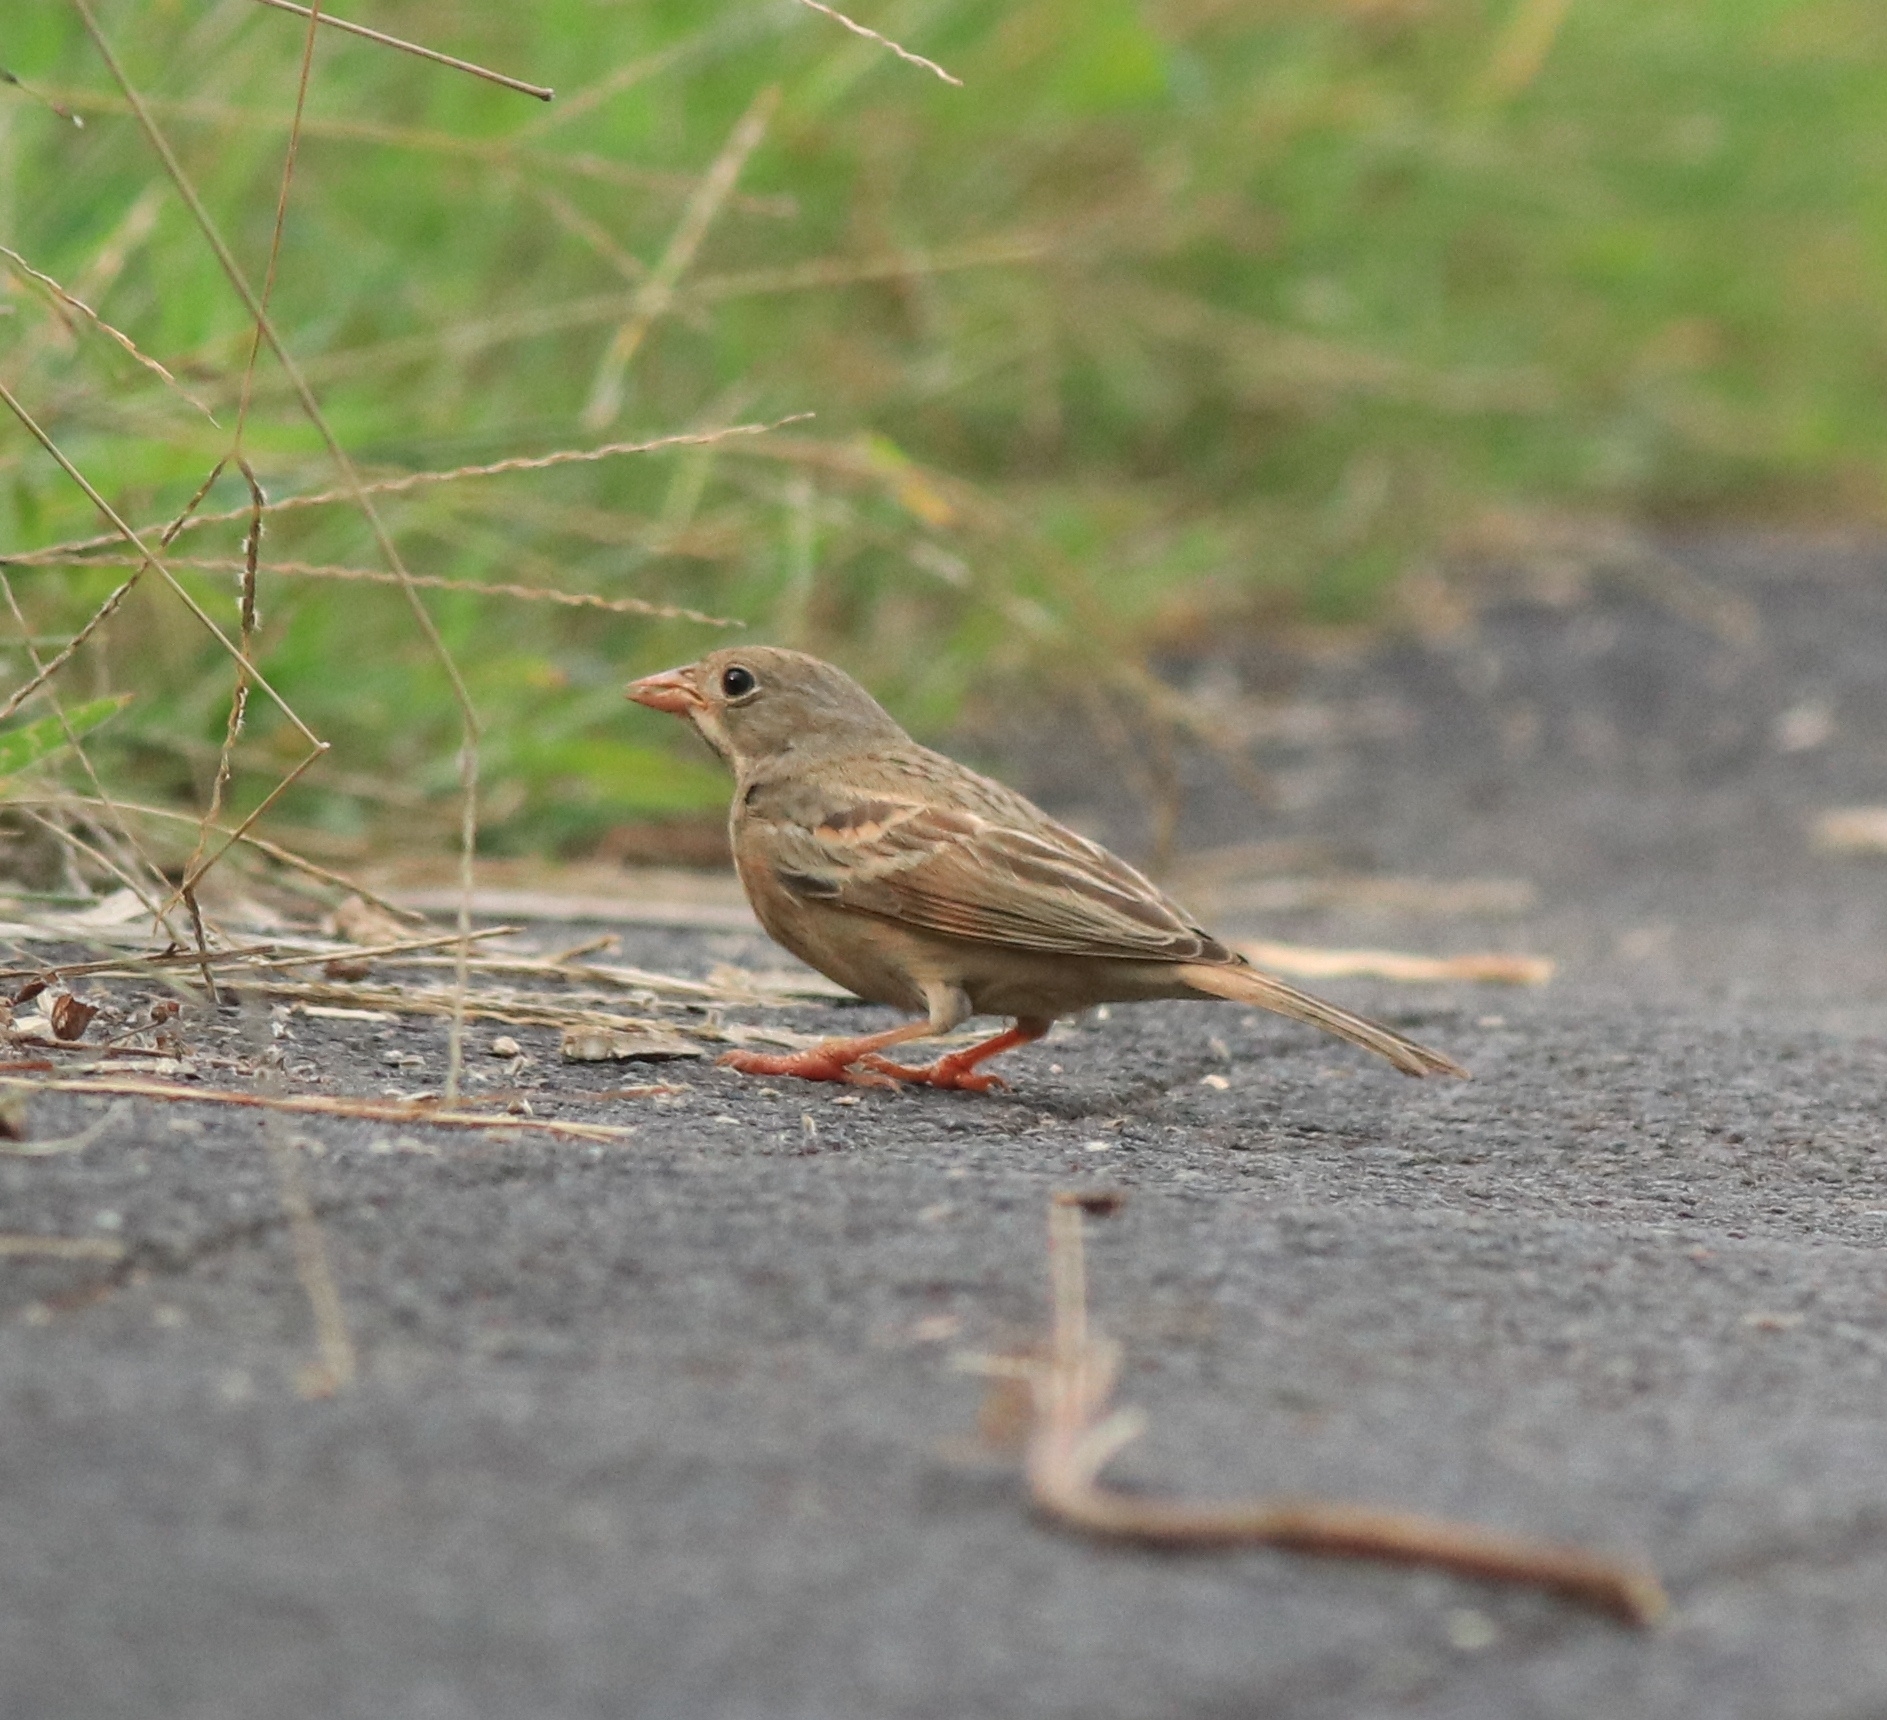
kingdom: Animalia
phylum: Chordata
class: Aves
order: Passeriformes
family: Emberizidae
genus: Emberiza
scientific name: Emberiza buchanani
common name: Grey-necked bunting
